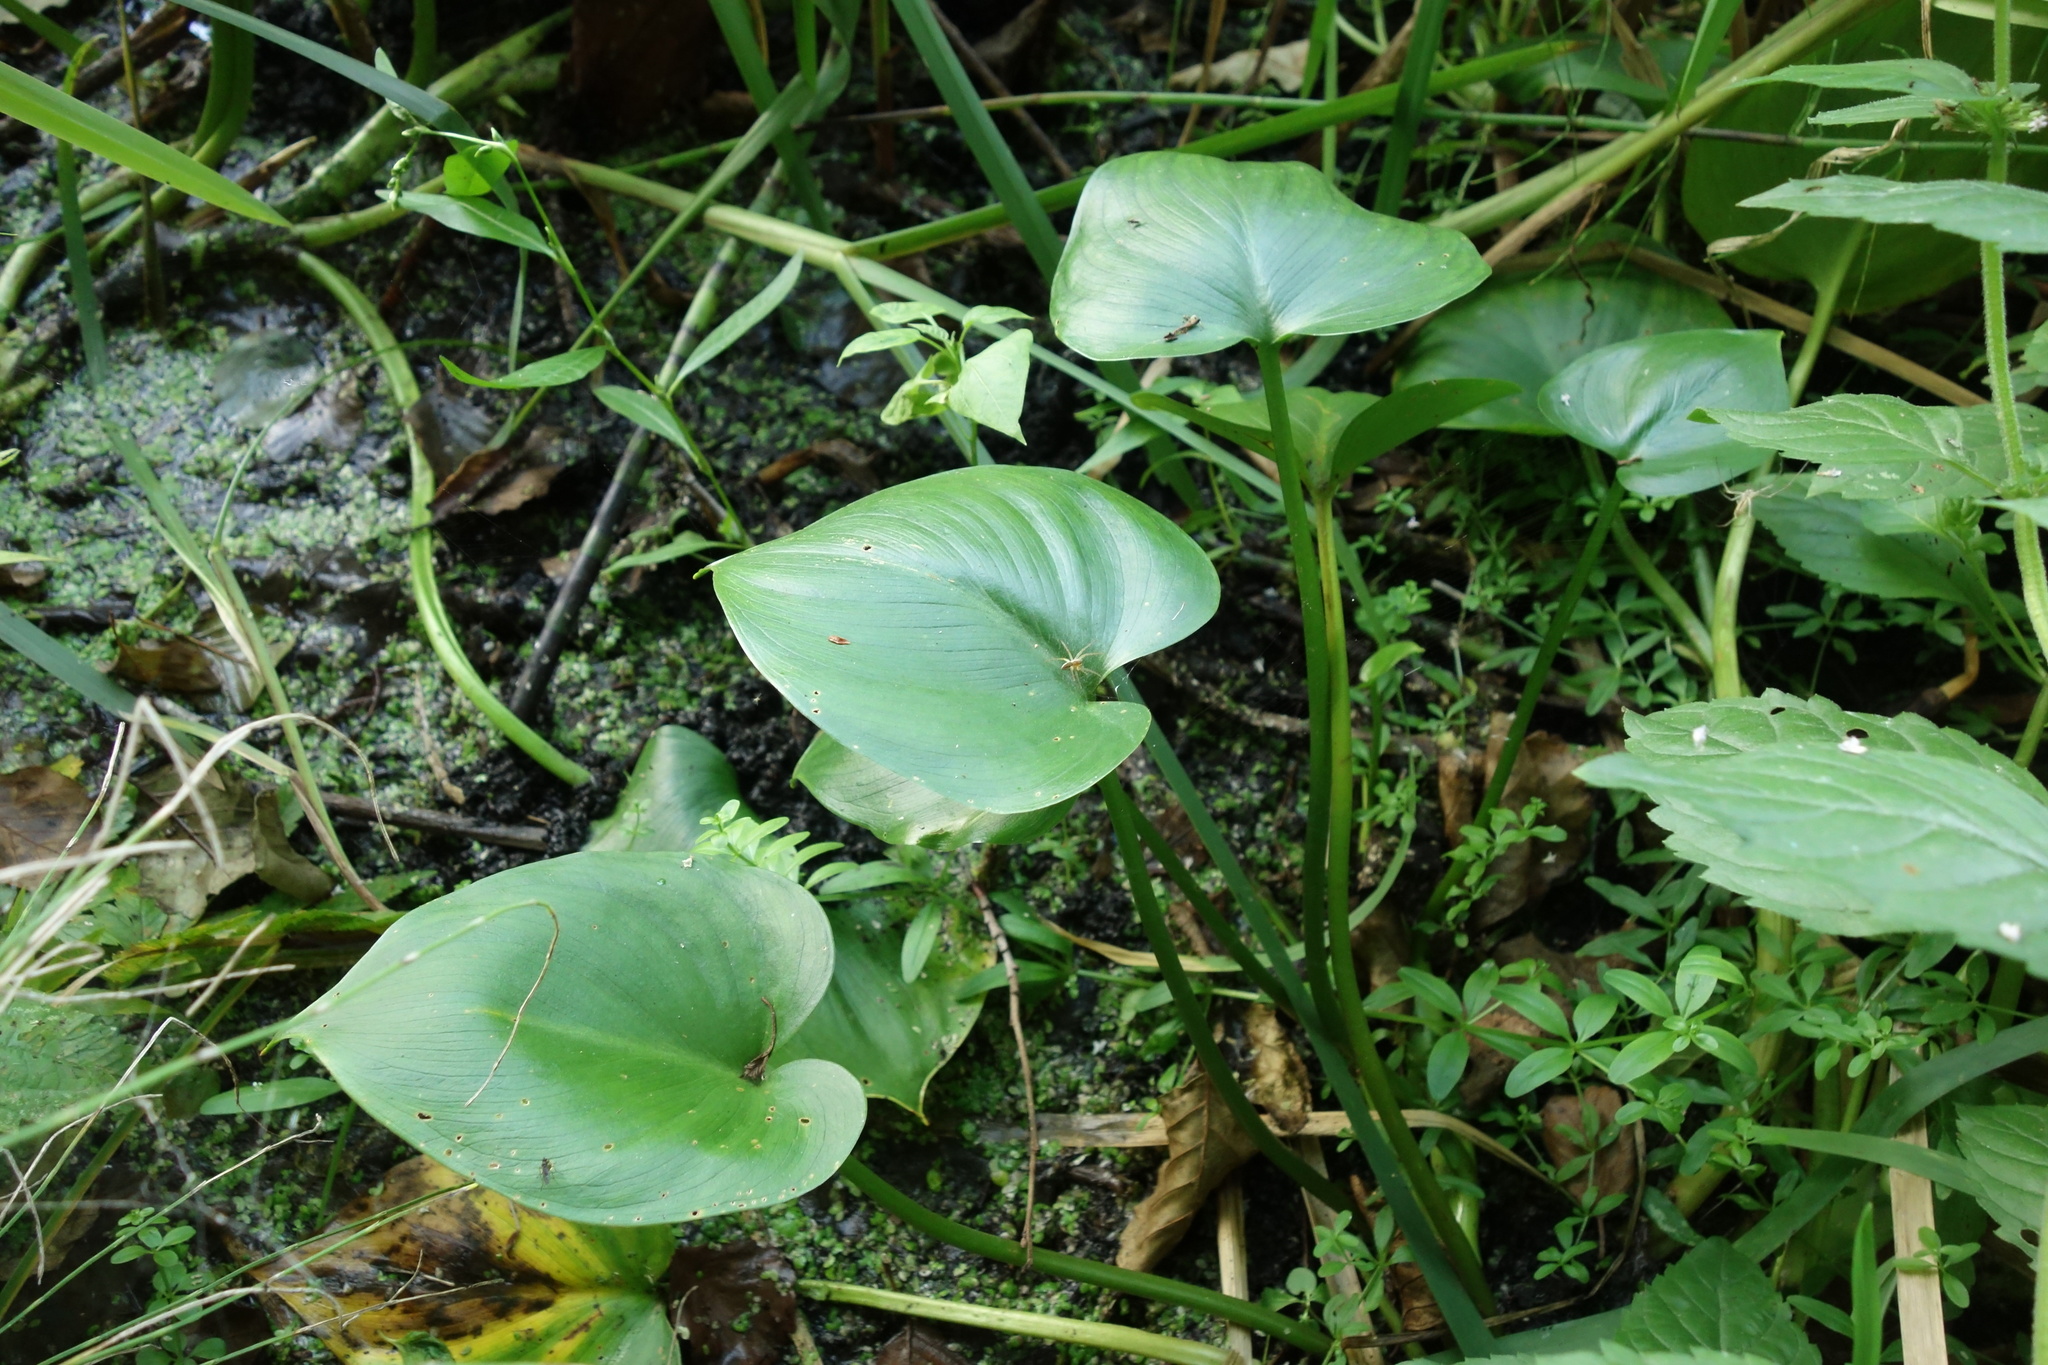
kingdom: Plantae
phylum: Tracheophyta
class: Liliopsida
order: Alismatales
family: Araceae
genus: Calla
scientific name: Calla palustris
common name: Bog arum
